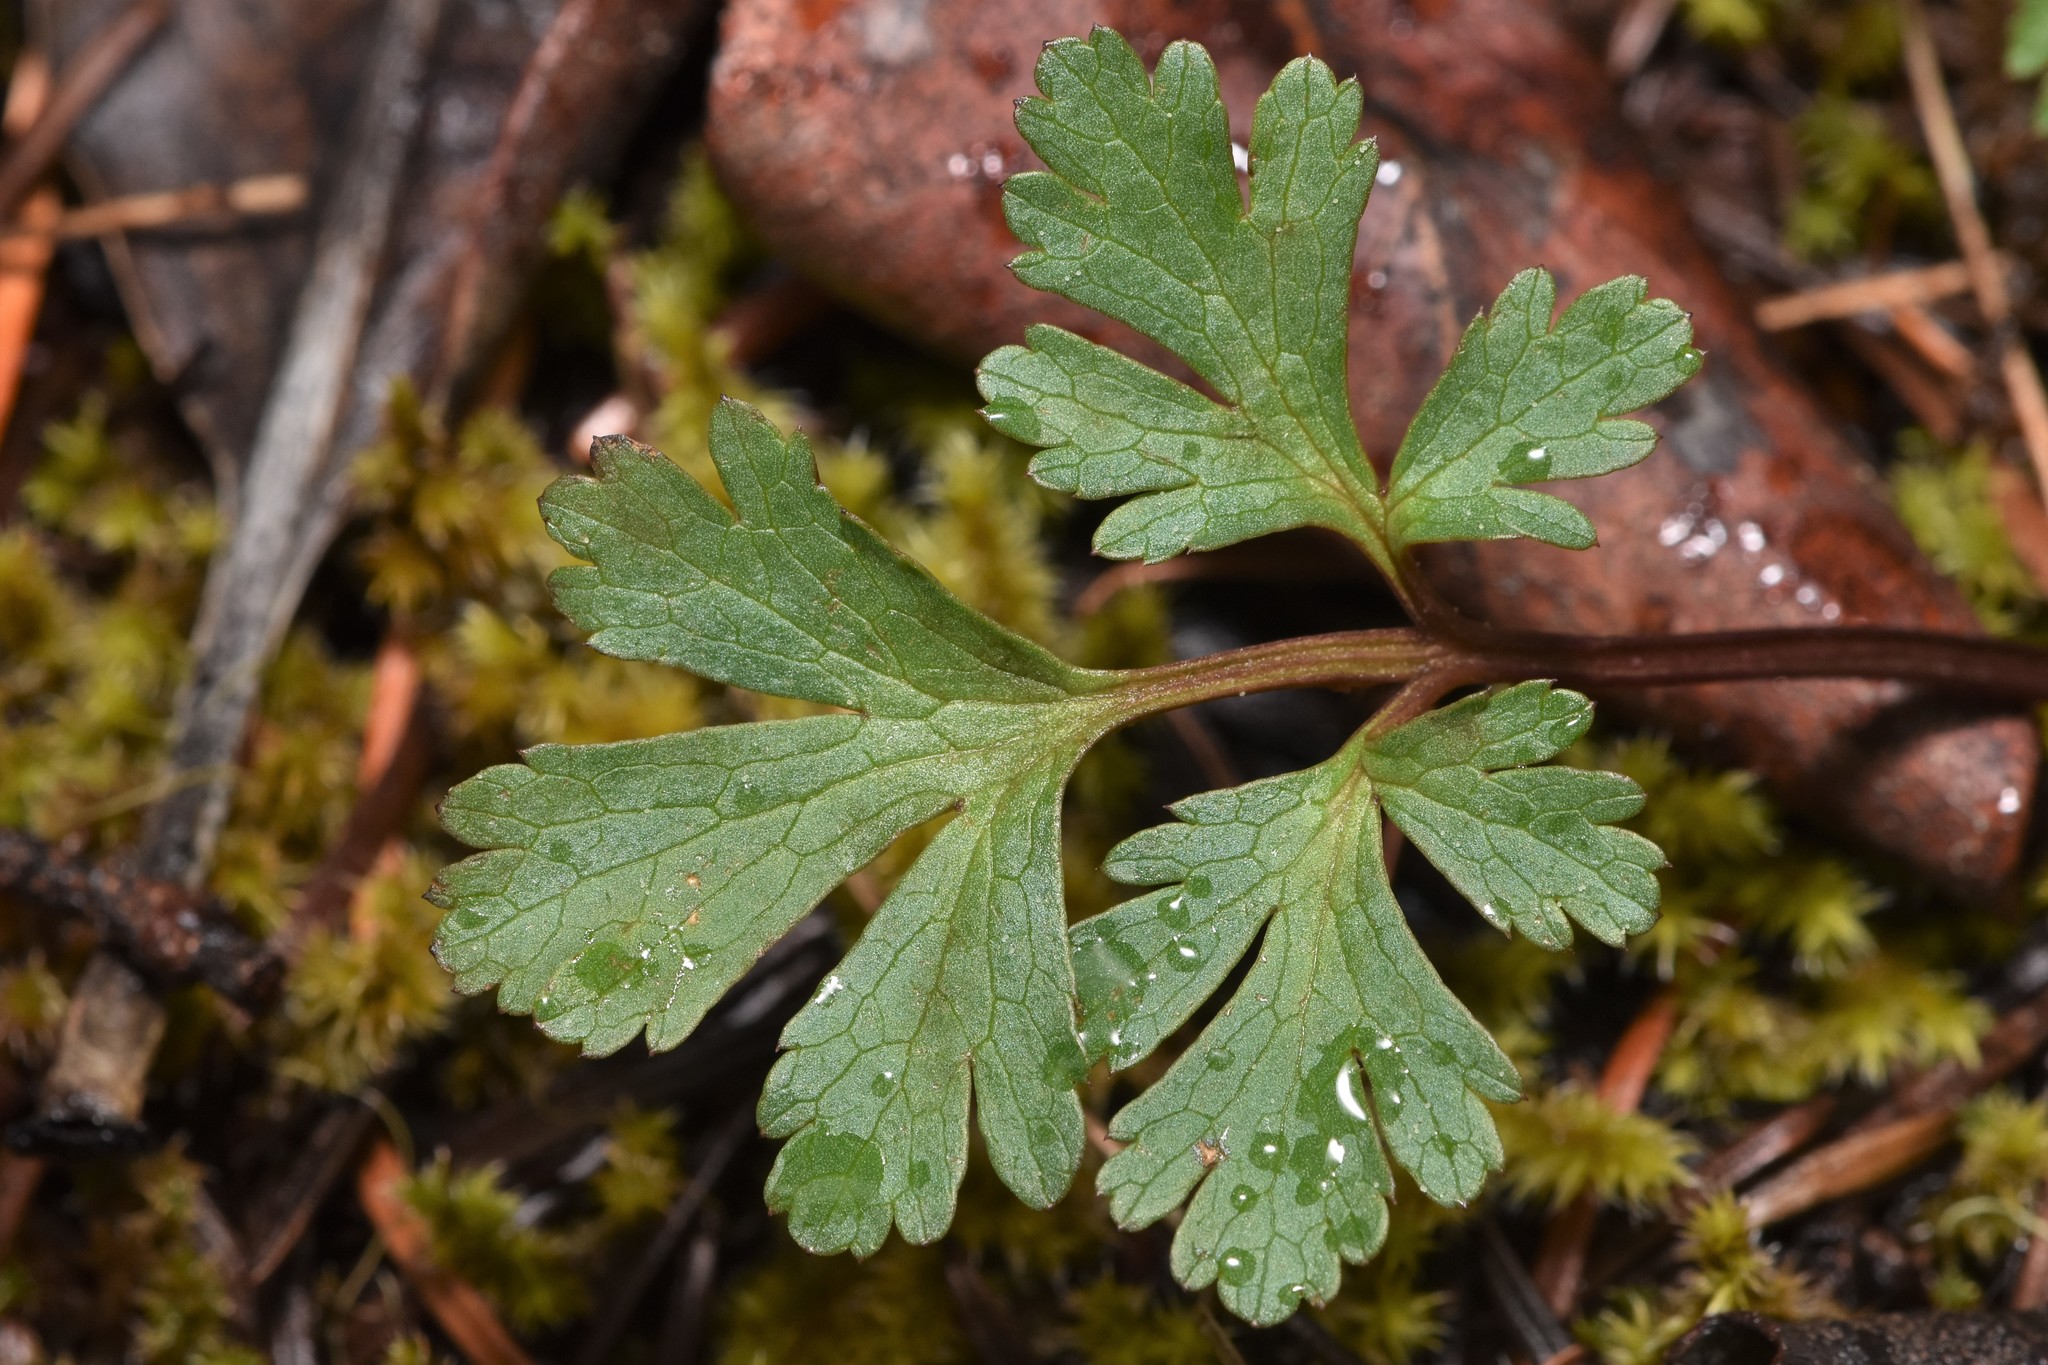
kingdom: Plantae
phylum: Tracheophyta
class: Magnoliopsida
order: Apiales
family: Apiaceae
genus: Sanicula
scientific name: Sanicula graveolens
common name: Sierra sanicle
